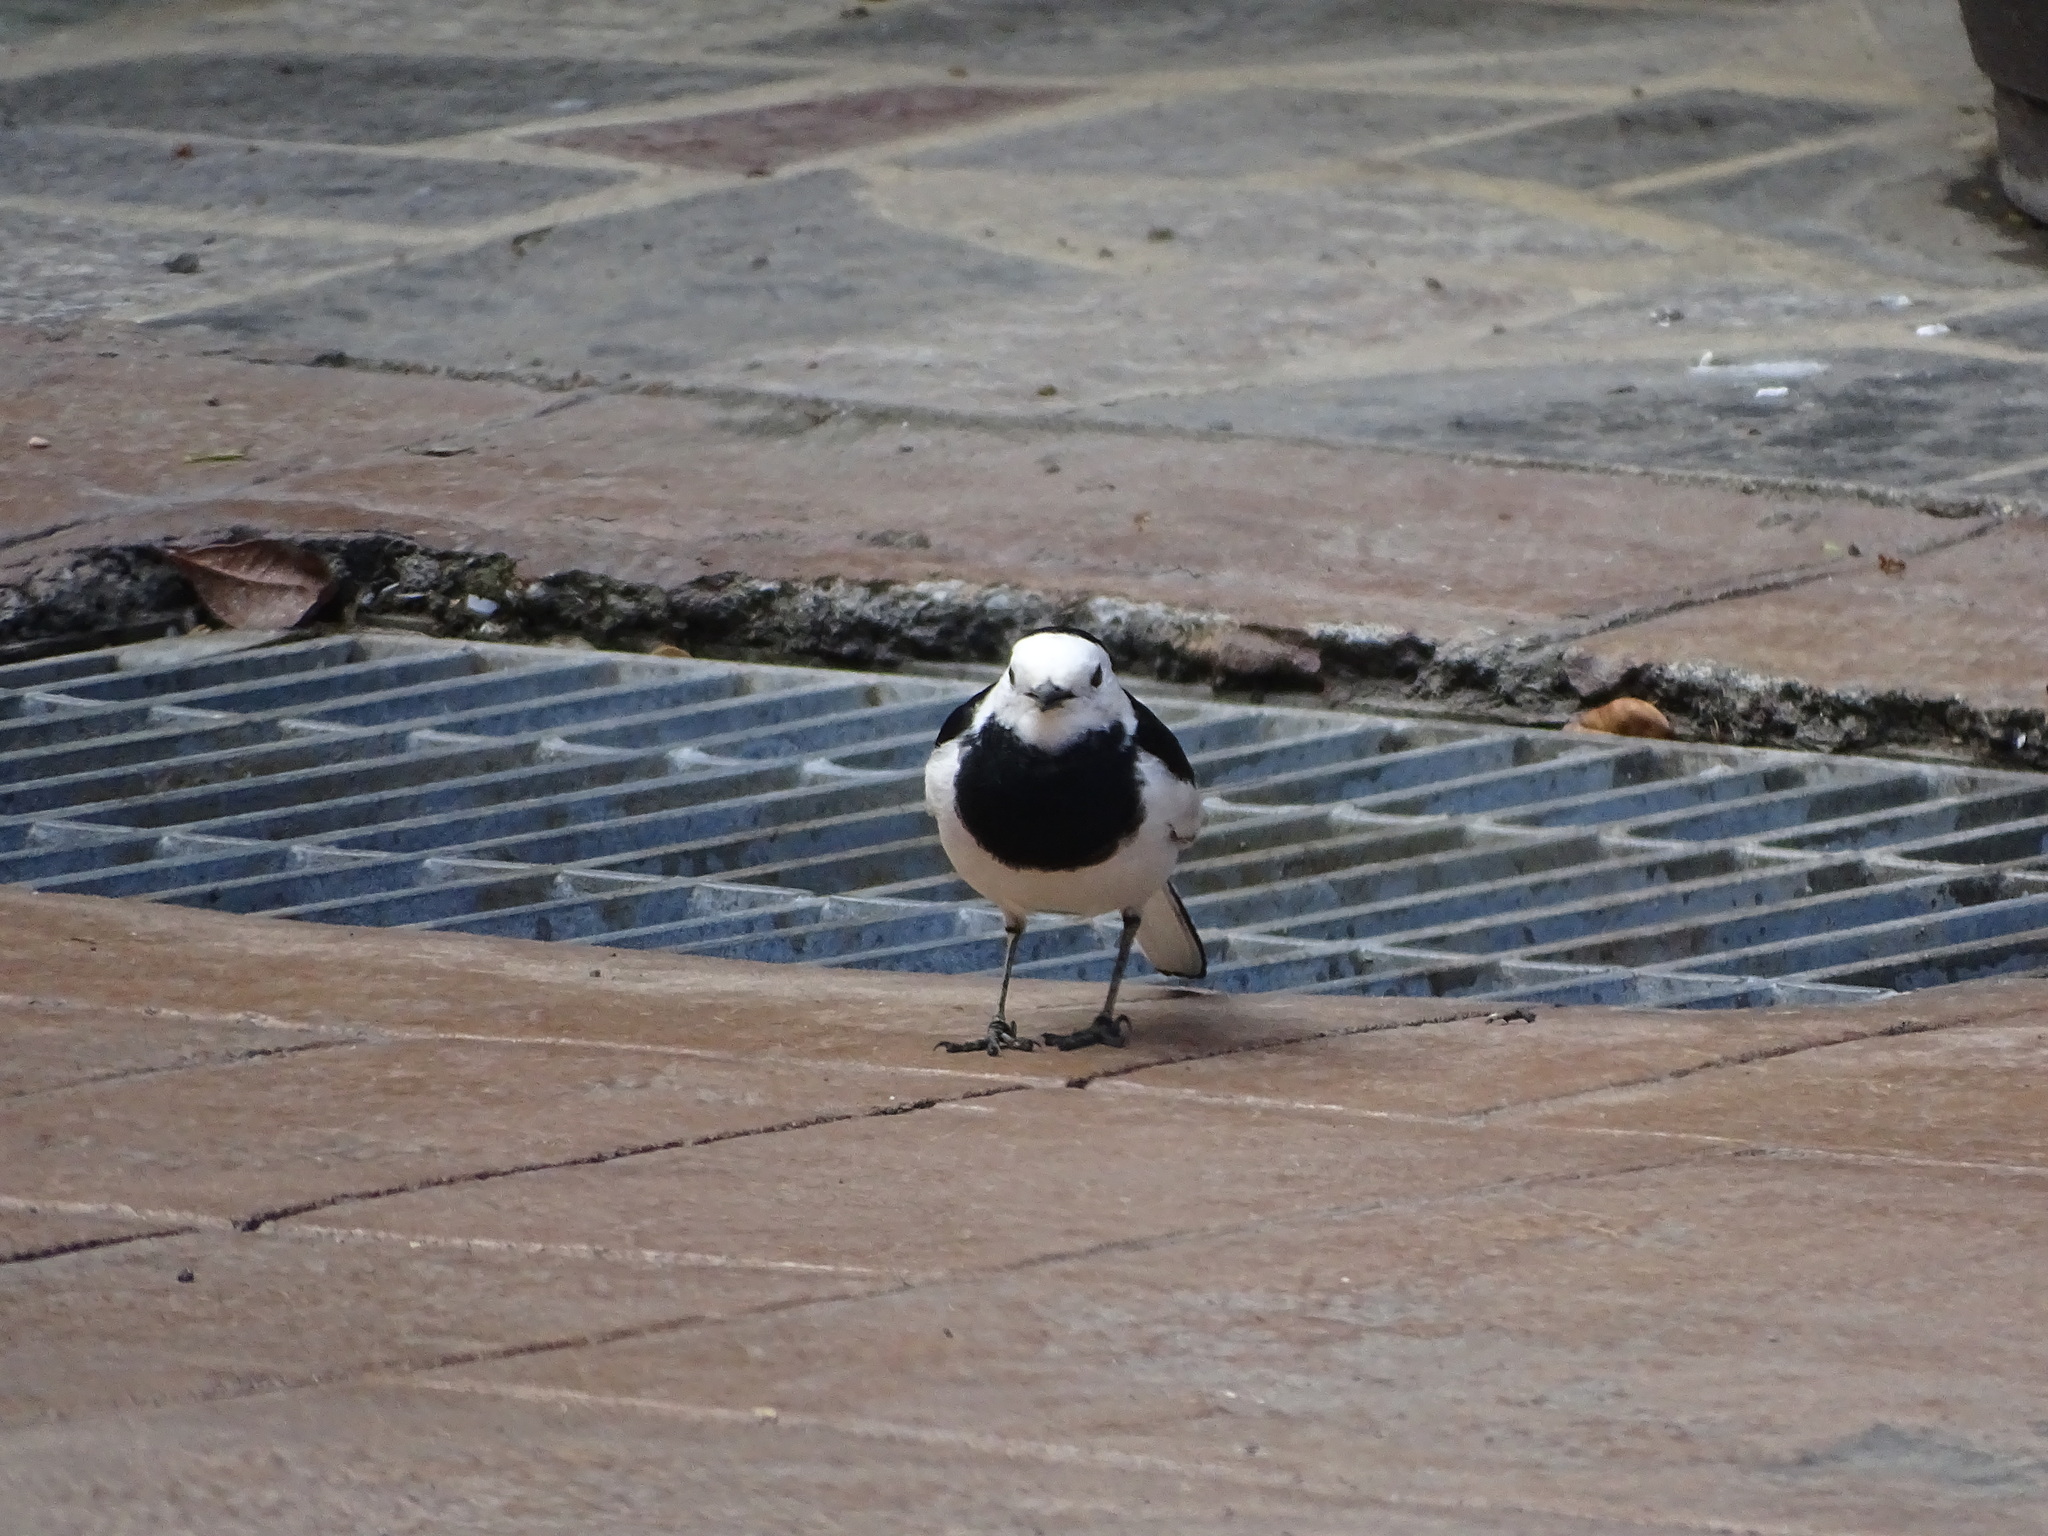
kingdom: Animalia
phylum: Chordata
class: Aves
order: Passeriformes
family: Motacillidae
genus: Motacilla
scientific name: Motacilla alba
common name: White wagtail
